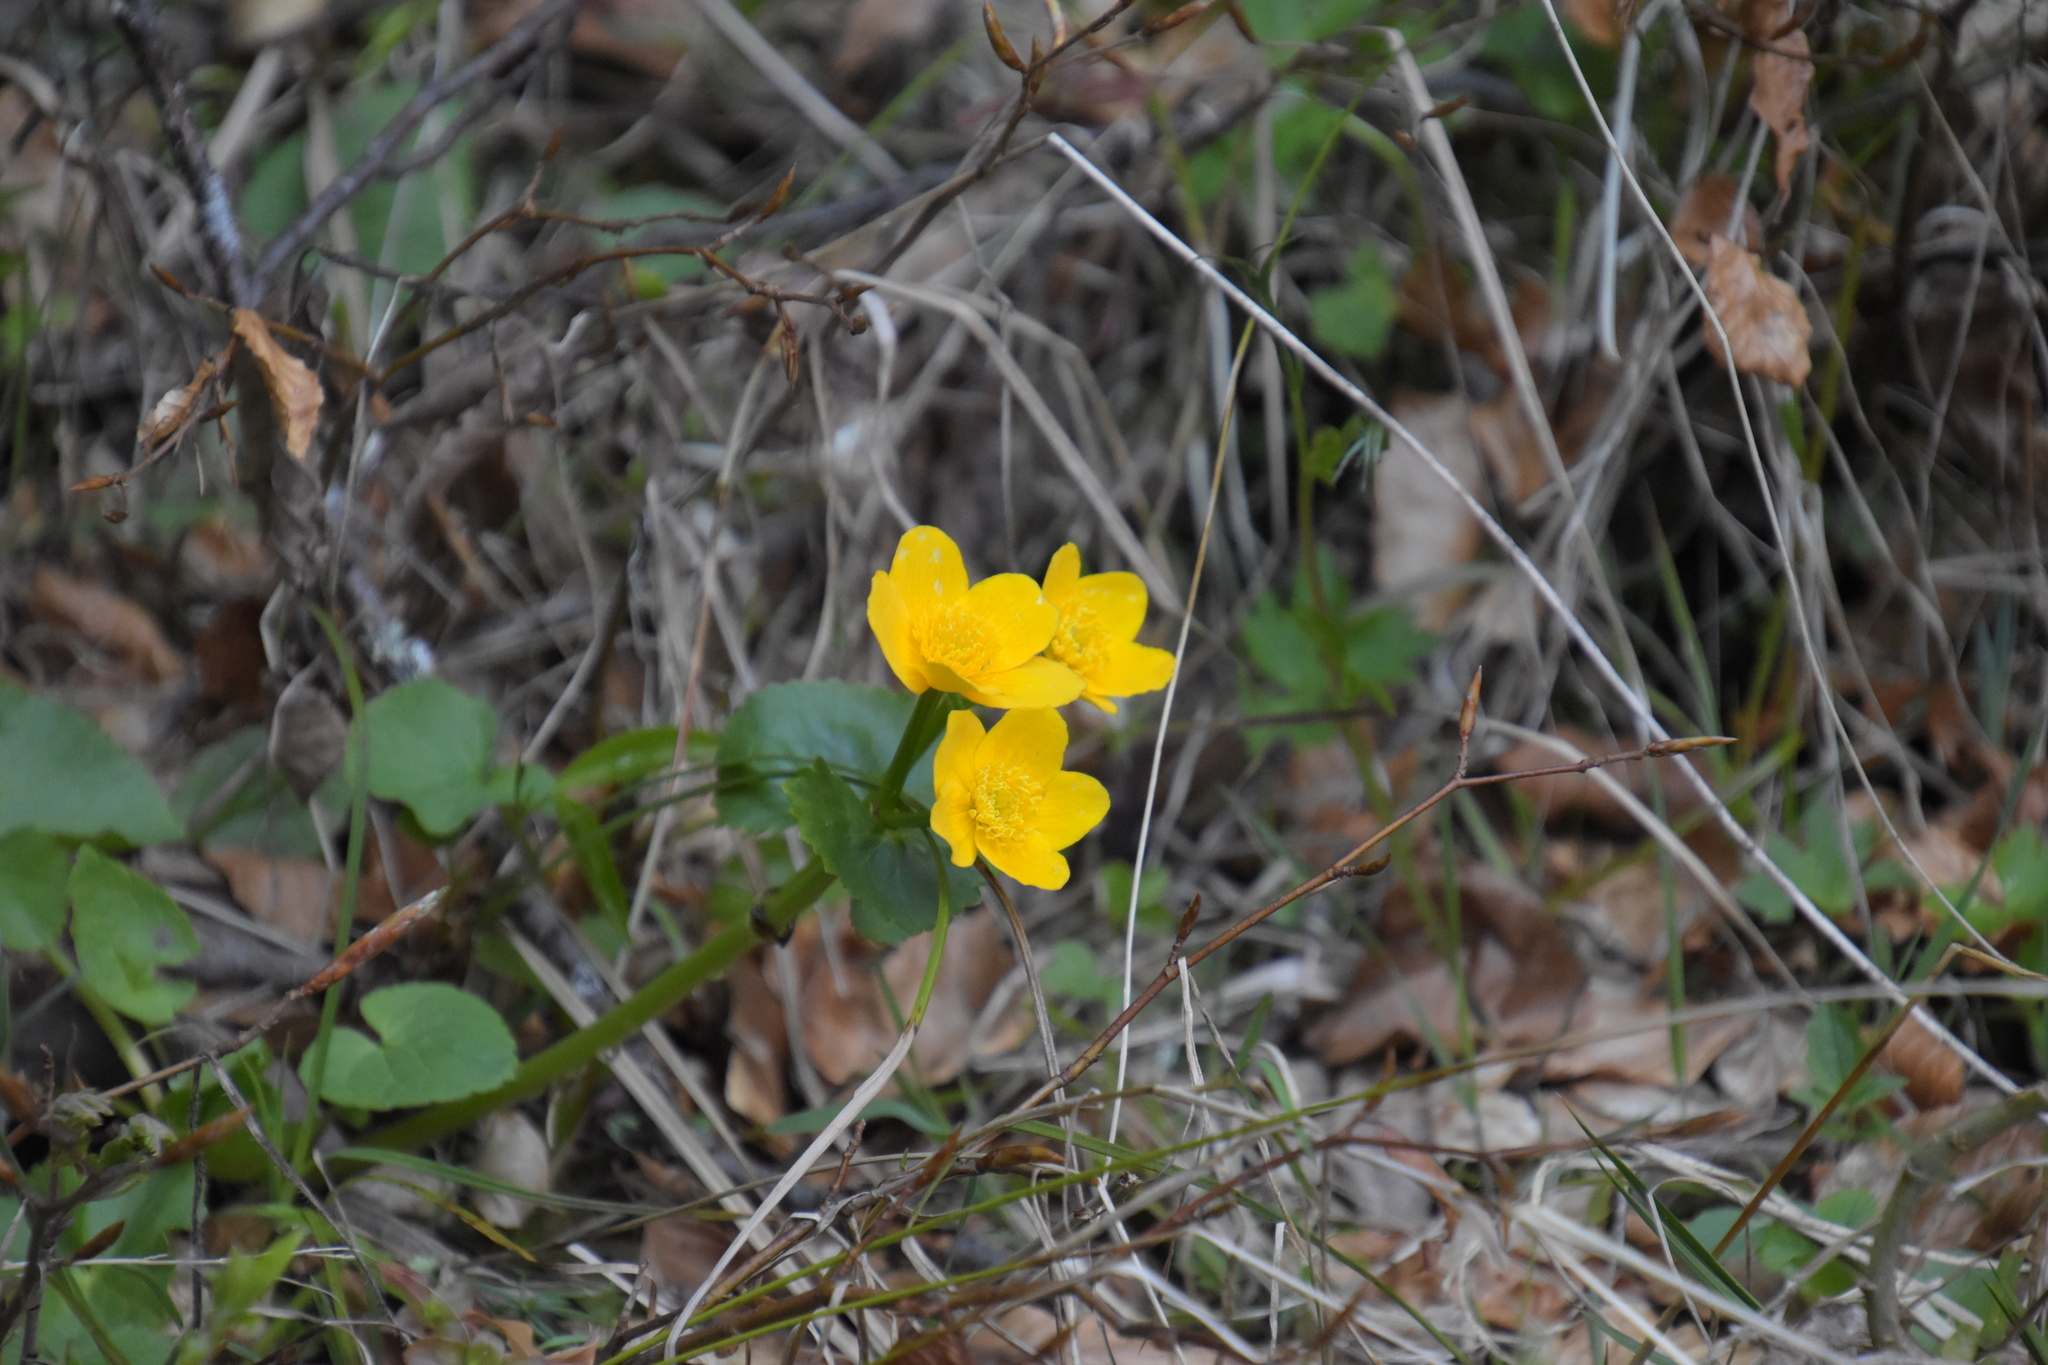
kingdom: Plantae
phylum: Tracheophyta
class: Magnoliopsida
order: Ranunculales
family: Ranunculaceae
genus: Caltha
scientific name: Caltha palustris
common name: Marsh marigold
